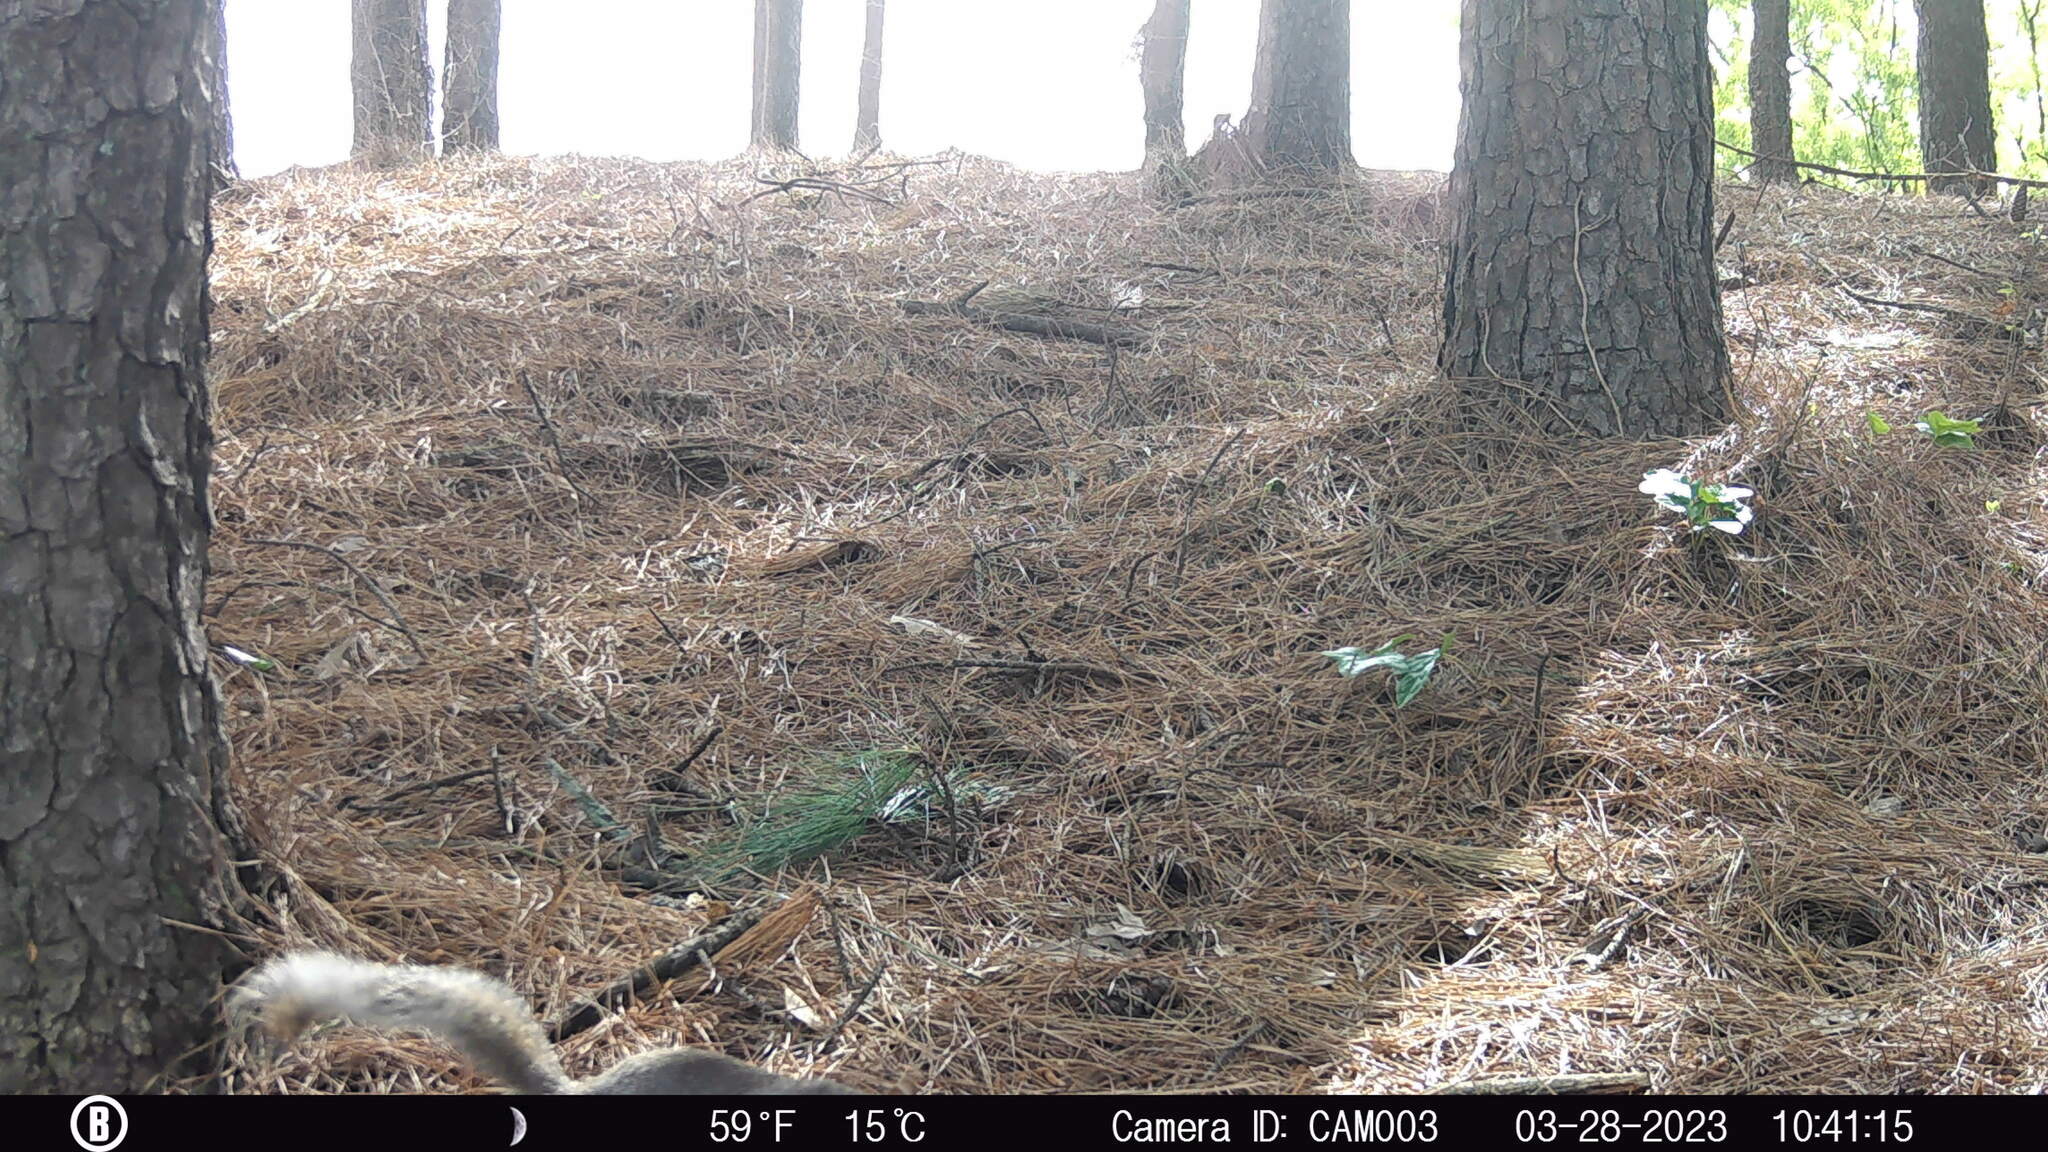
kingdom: Animalia
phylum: Chordata
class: Mammalia
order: Rodentia
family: Sciuridae
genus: Sciurus
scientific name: Sciurus carolinensis
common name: Eastern gray squirrel
